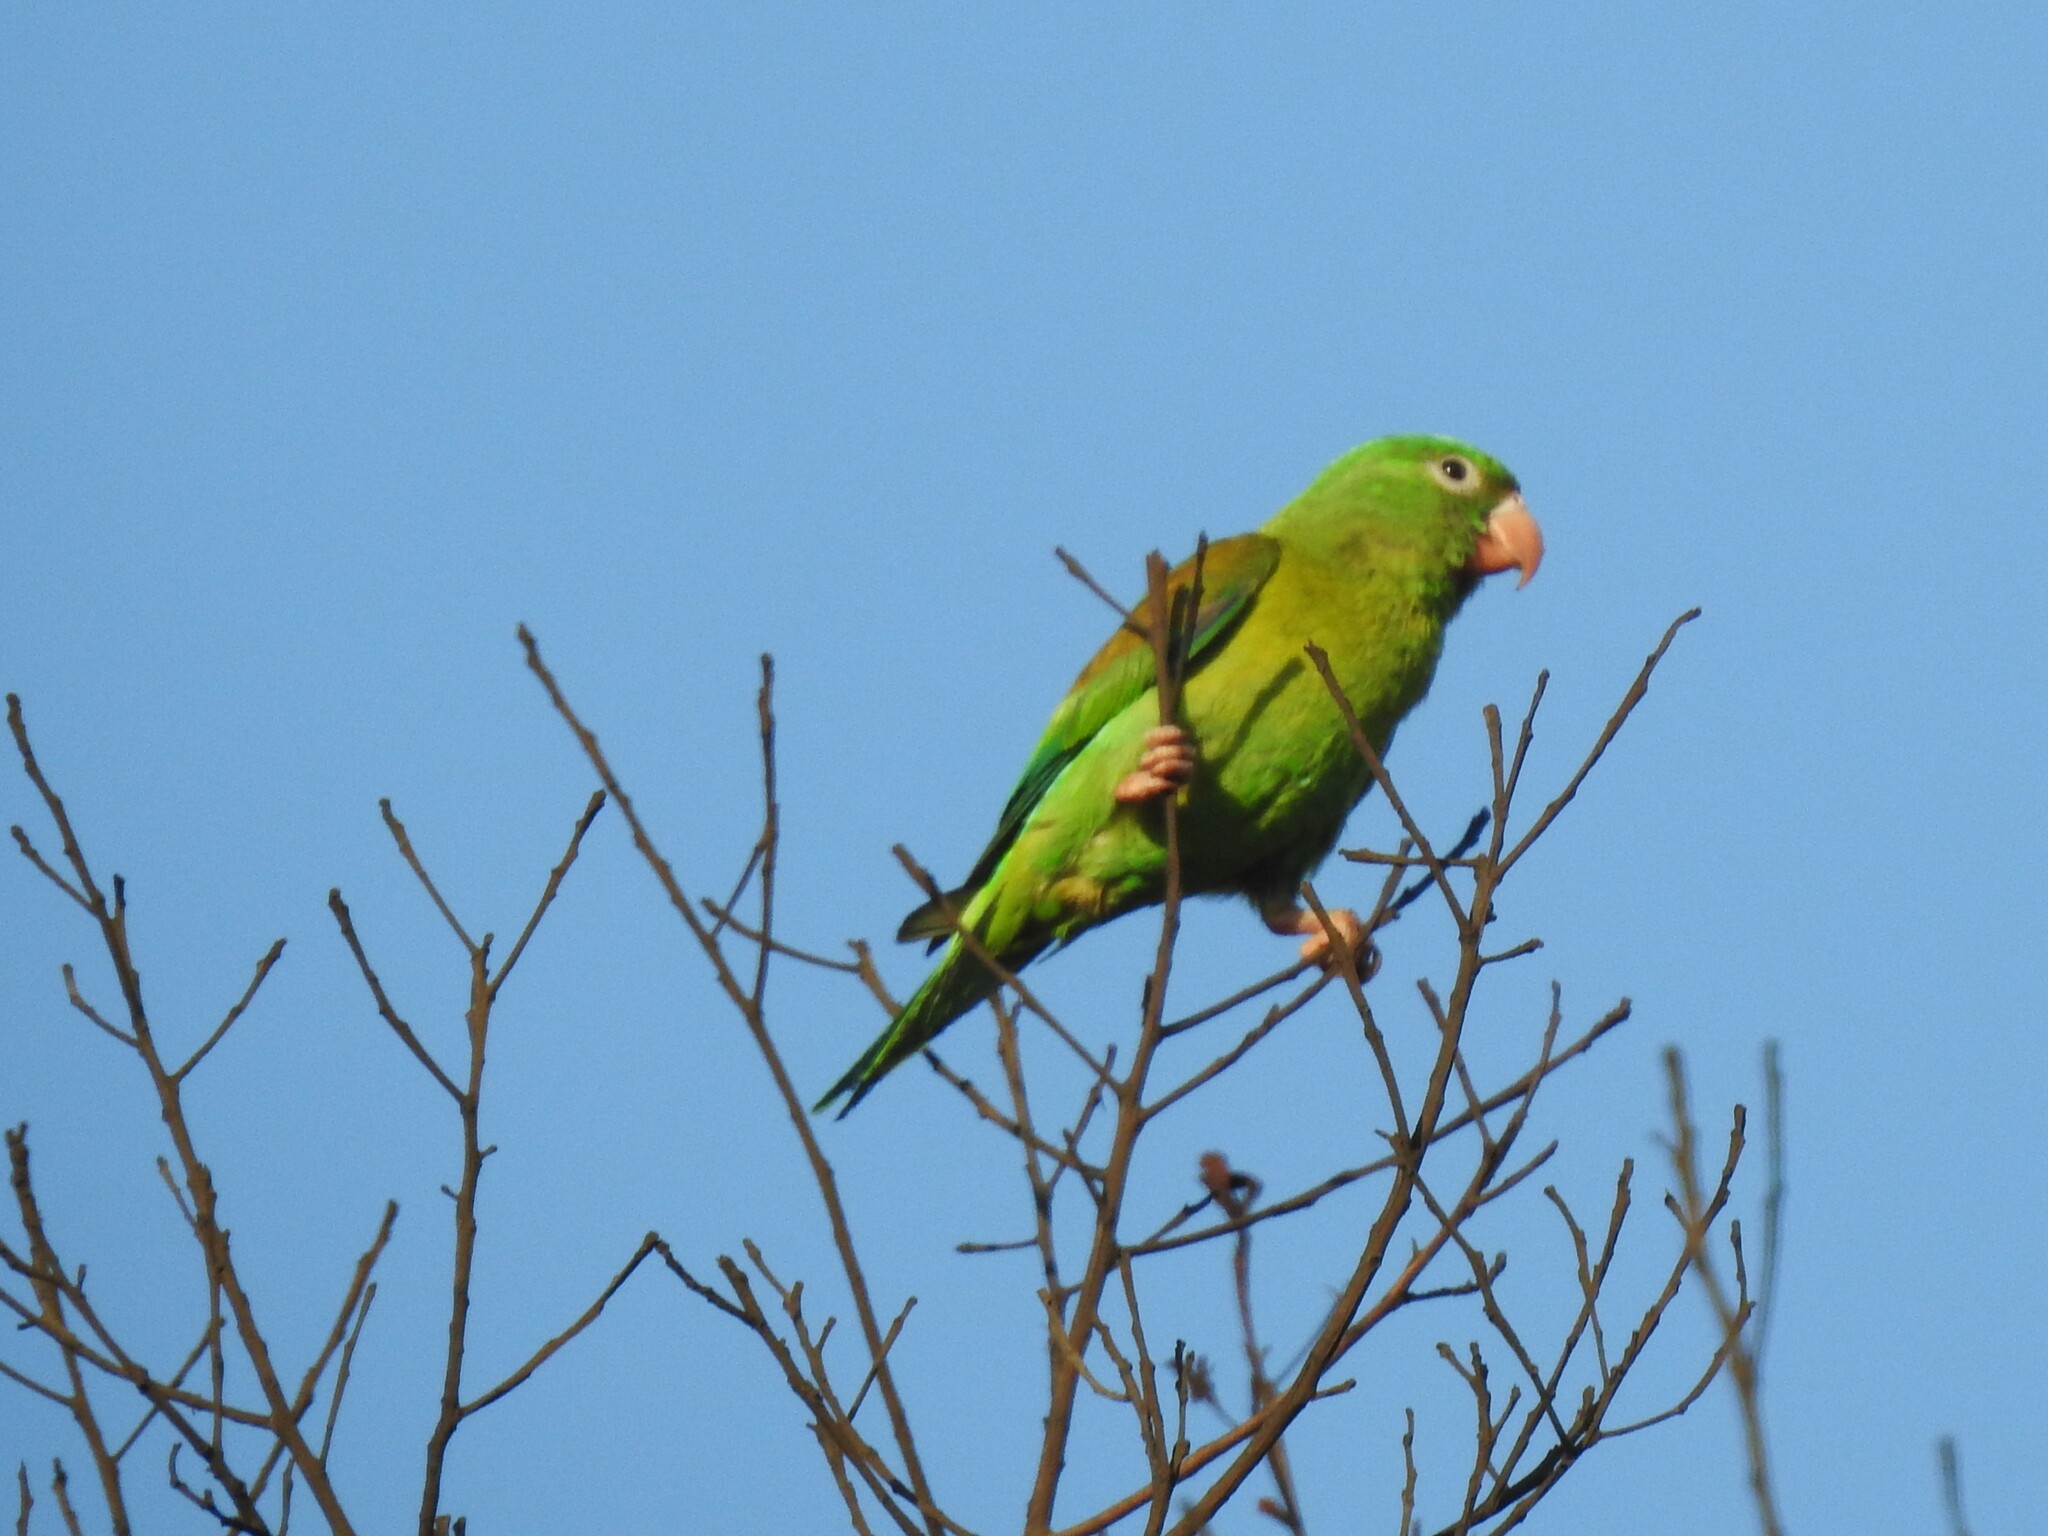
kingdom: Animalia
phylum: Chordata
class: Aves
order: Psittaciformes
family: Psittacidae
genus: Brotogeris
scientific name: Brotogeris jugularis
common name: Orange-chinned parakeet
